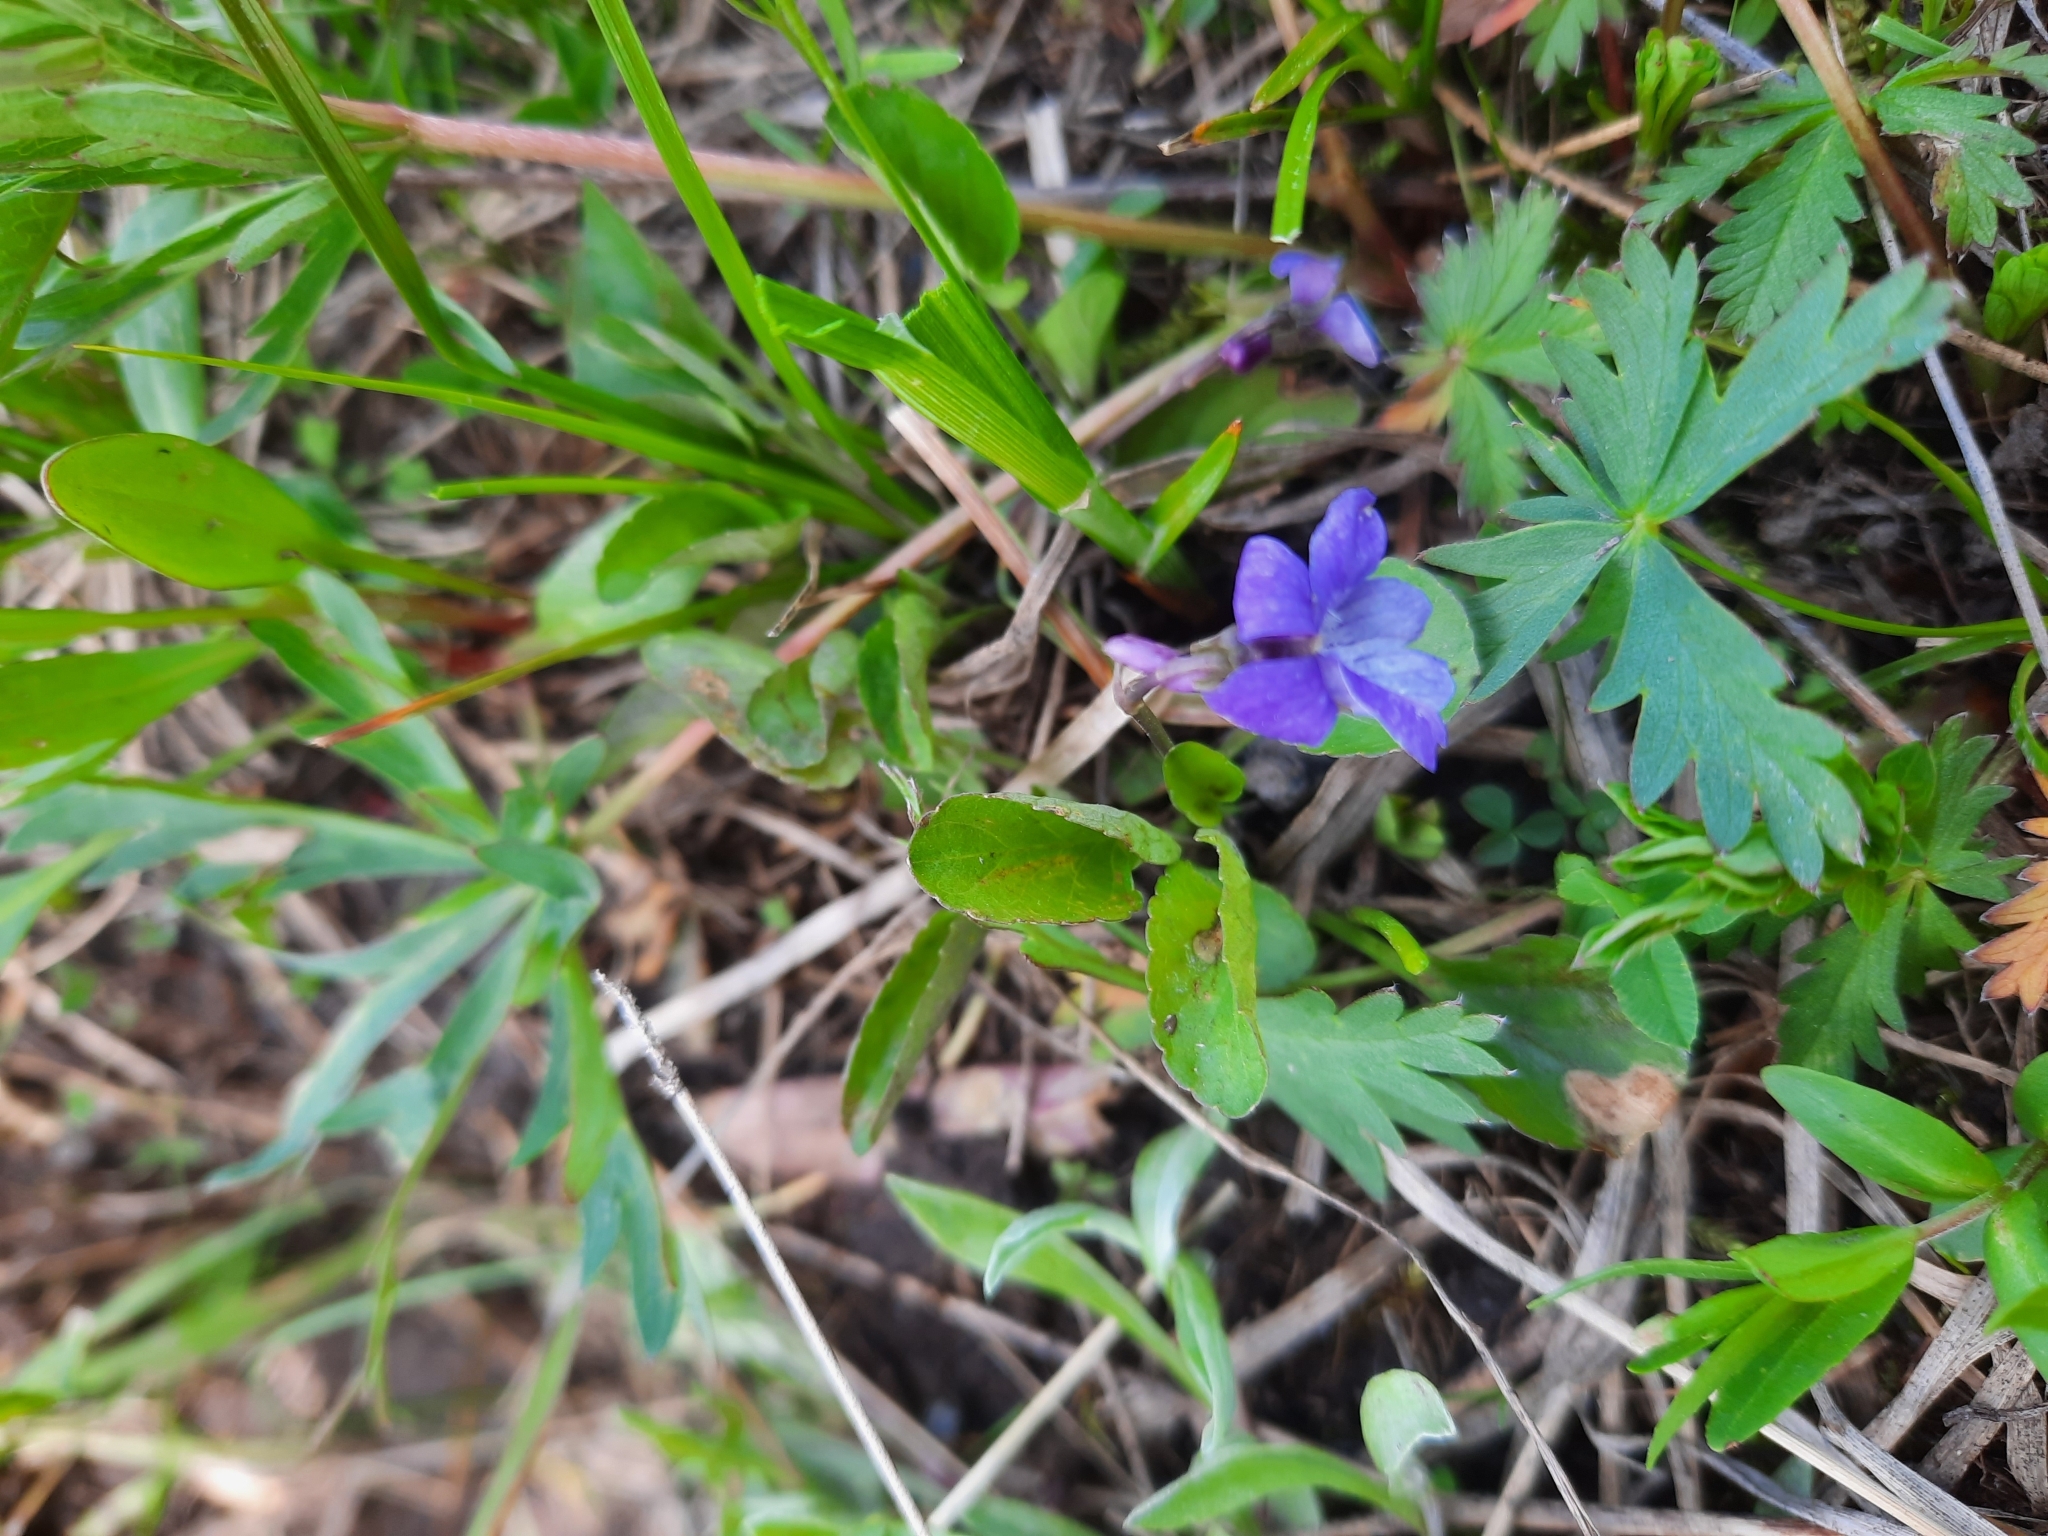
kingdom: Plantae
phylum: Tracheophyta
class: Magnoliopsida
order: Malpighiales
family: Violaceae
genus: Viola
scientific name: Viola adunca
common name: Sand violet
